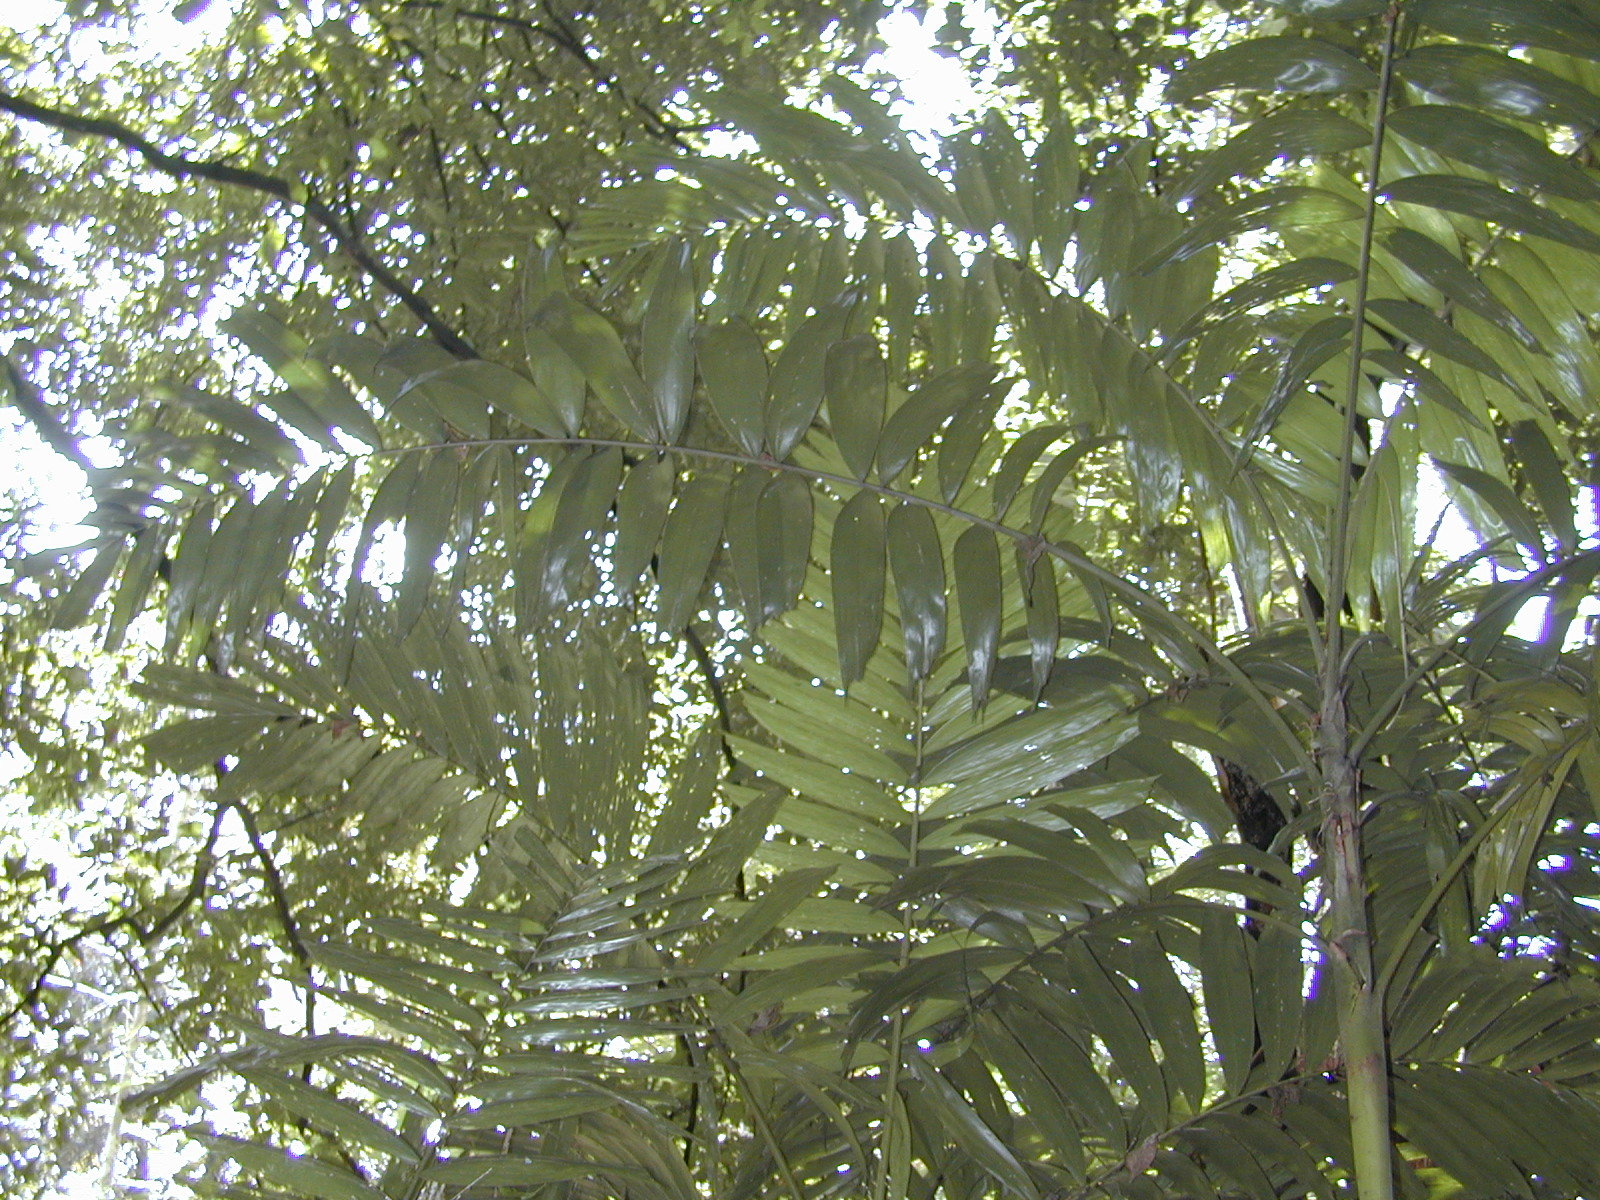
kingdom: Plantae
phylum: Tracheophyta
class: Liliopsida
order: Arecales
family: Arecaceae
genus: Ptychosperma
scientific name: Ptychosperma macarthurii
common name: Macarthur palm
